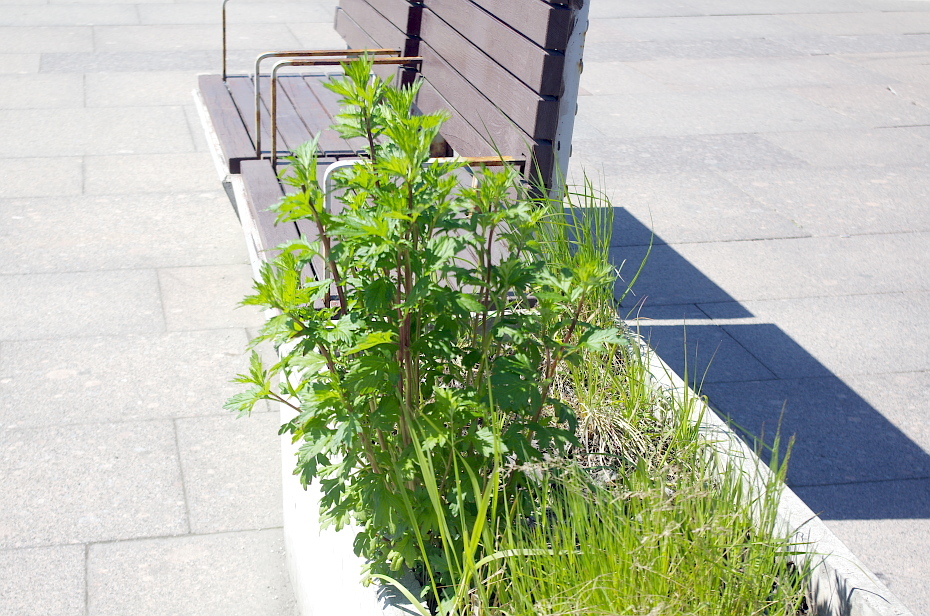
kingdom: Plantae
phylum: Tracheophyta
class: Magnoliopsida
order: Asterales
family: Asteraceae
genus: Artemisia
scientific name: Artemisia vulgaris
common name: Mugwort
